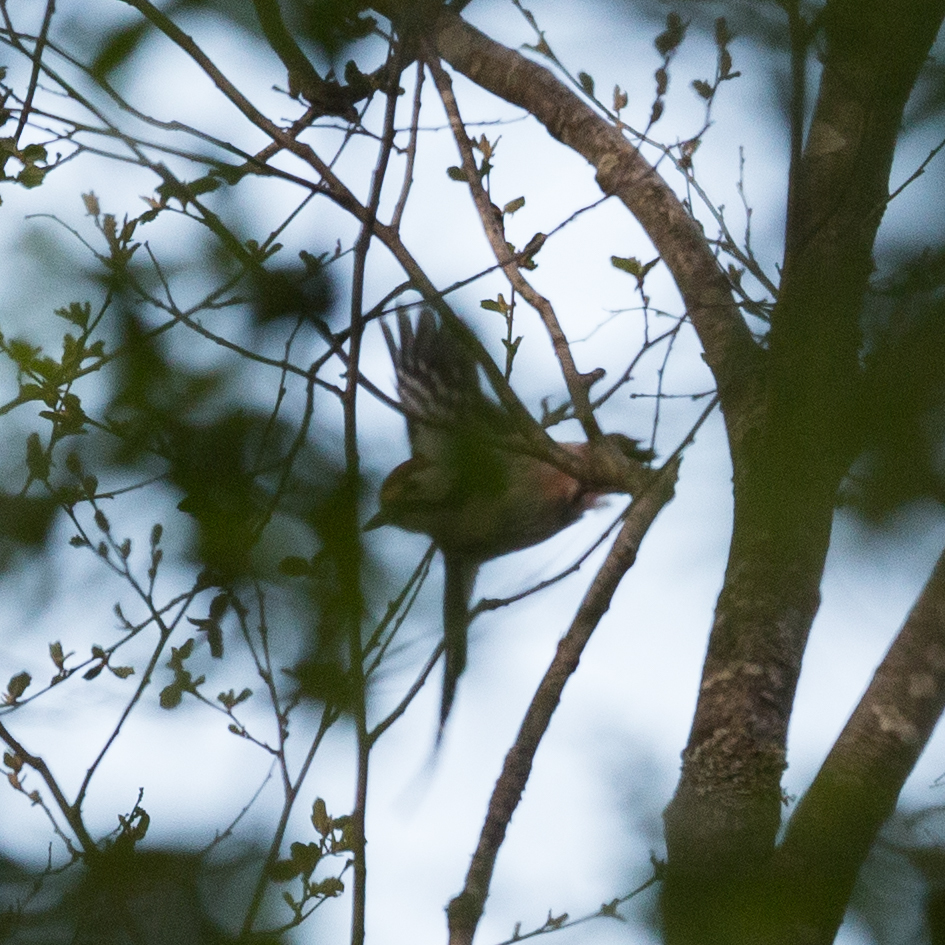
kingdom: Animalia
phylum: Chordata
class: Aves
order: Piciformes
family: Picidae
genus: Dendrocopos
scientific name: Dendrocopos leucotos
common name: White-backed woodpecker
